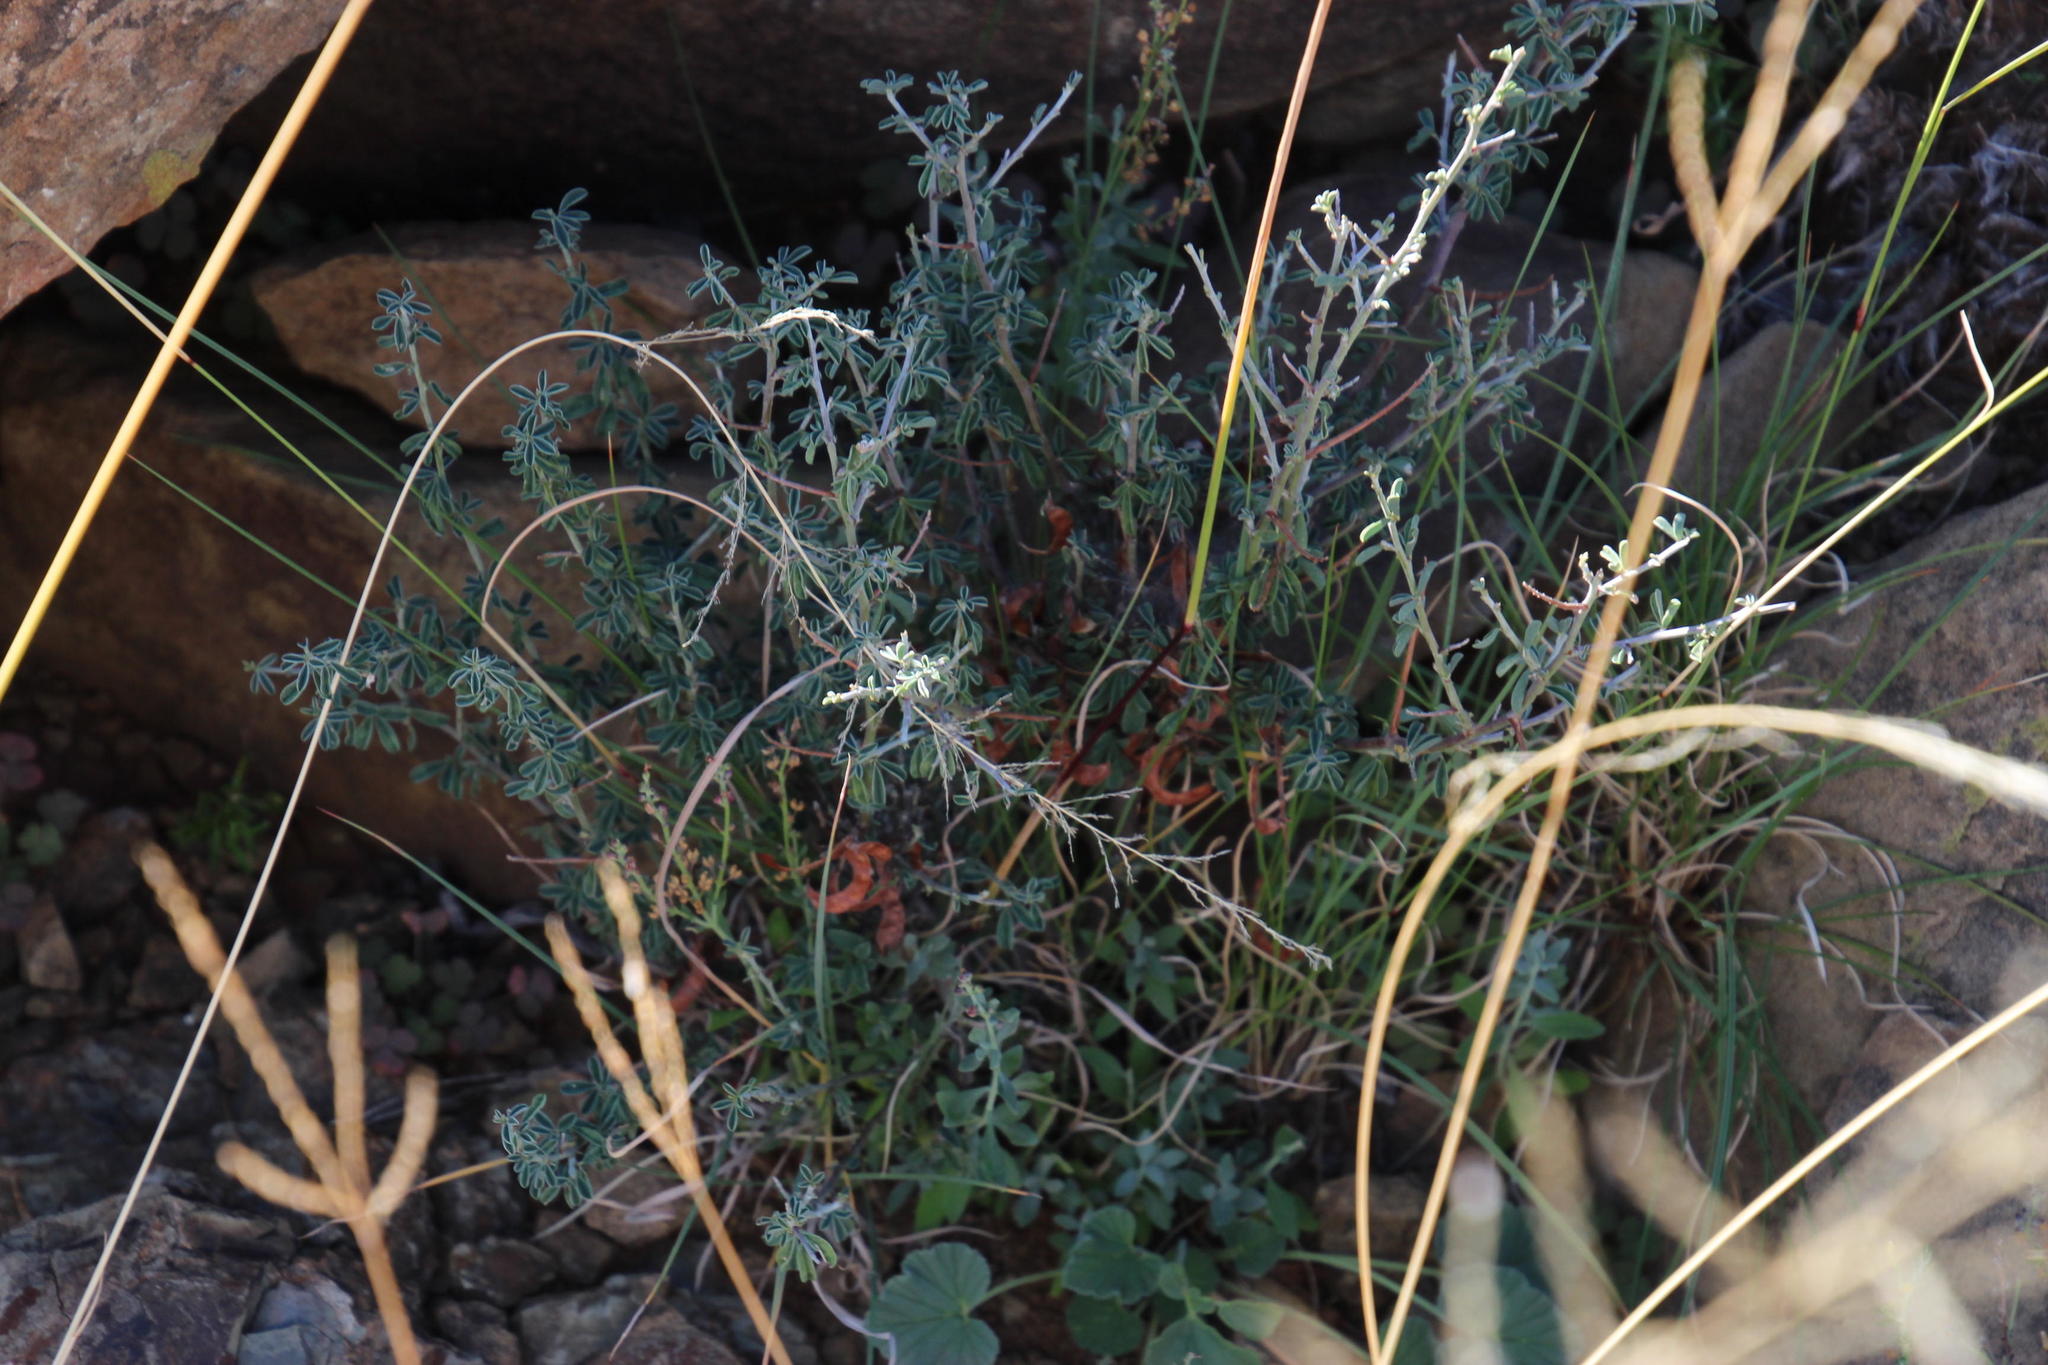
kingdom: Plantae
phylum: Tracheophyta
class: Magnoliopsida
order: Fabales
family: Fabaceae
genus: Indigofera
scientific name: Indigofera sessilifolia
